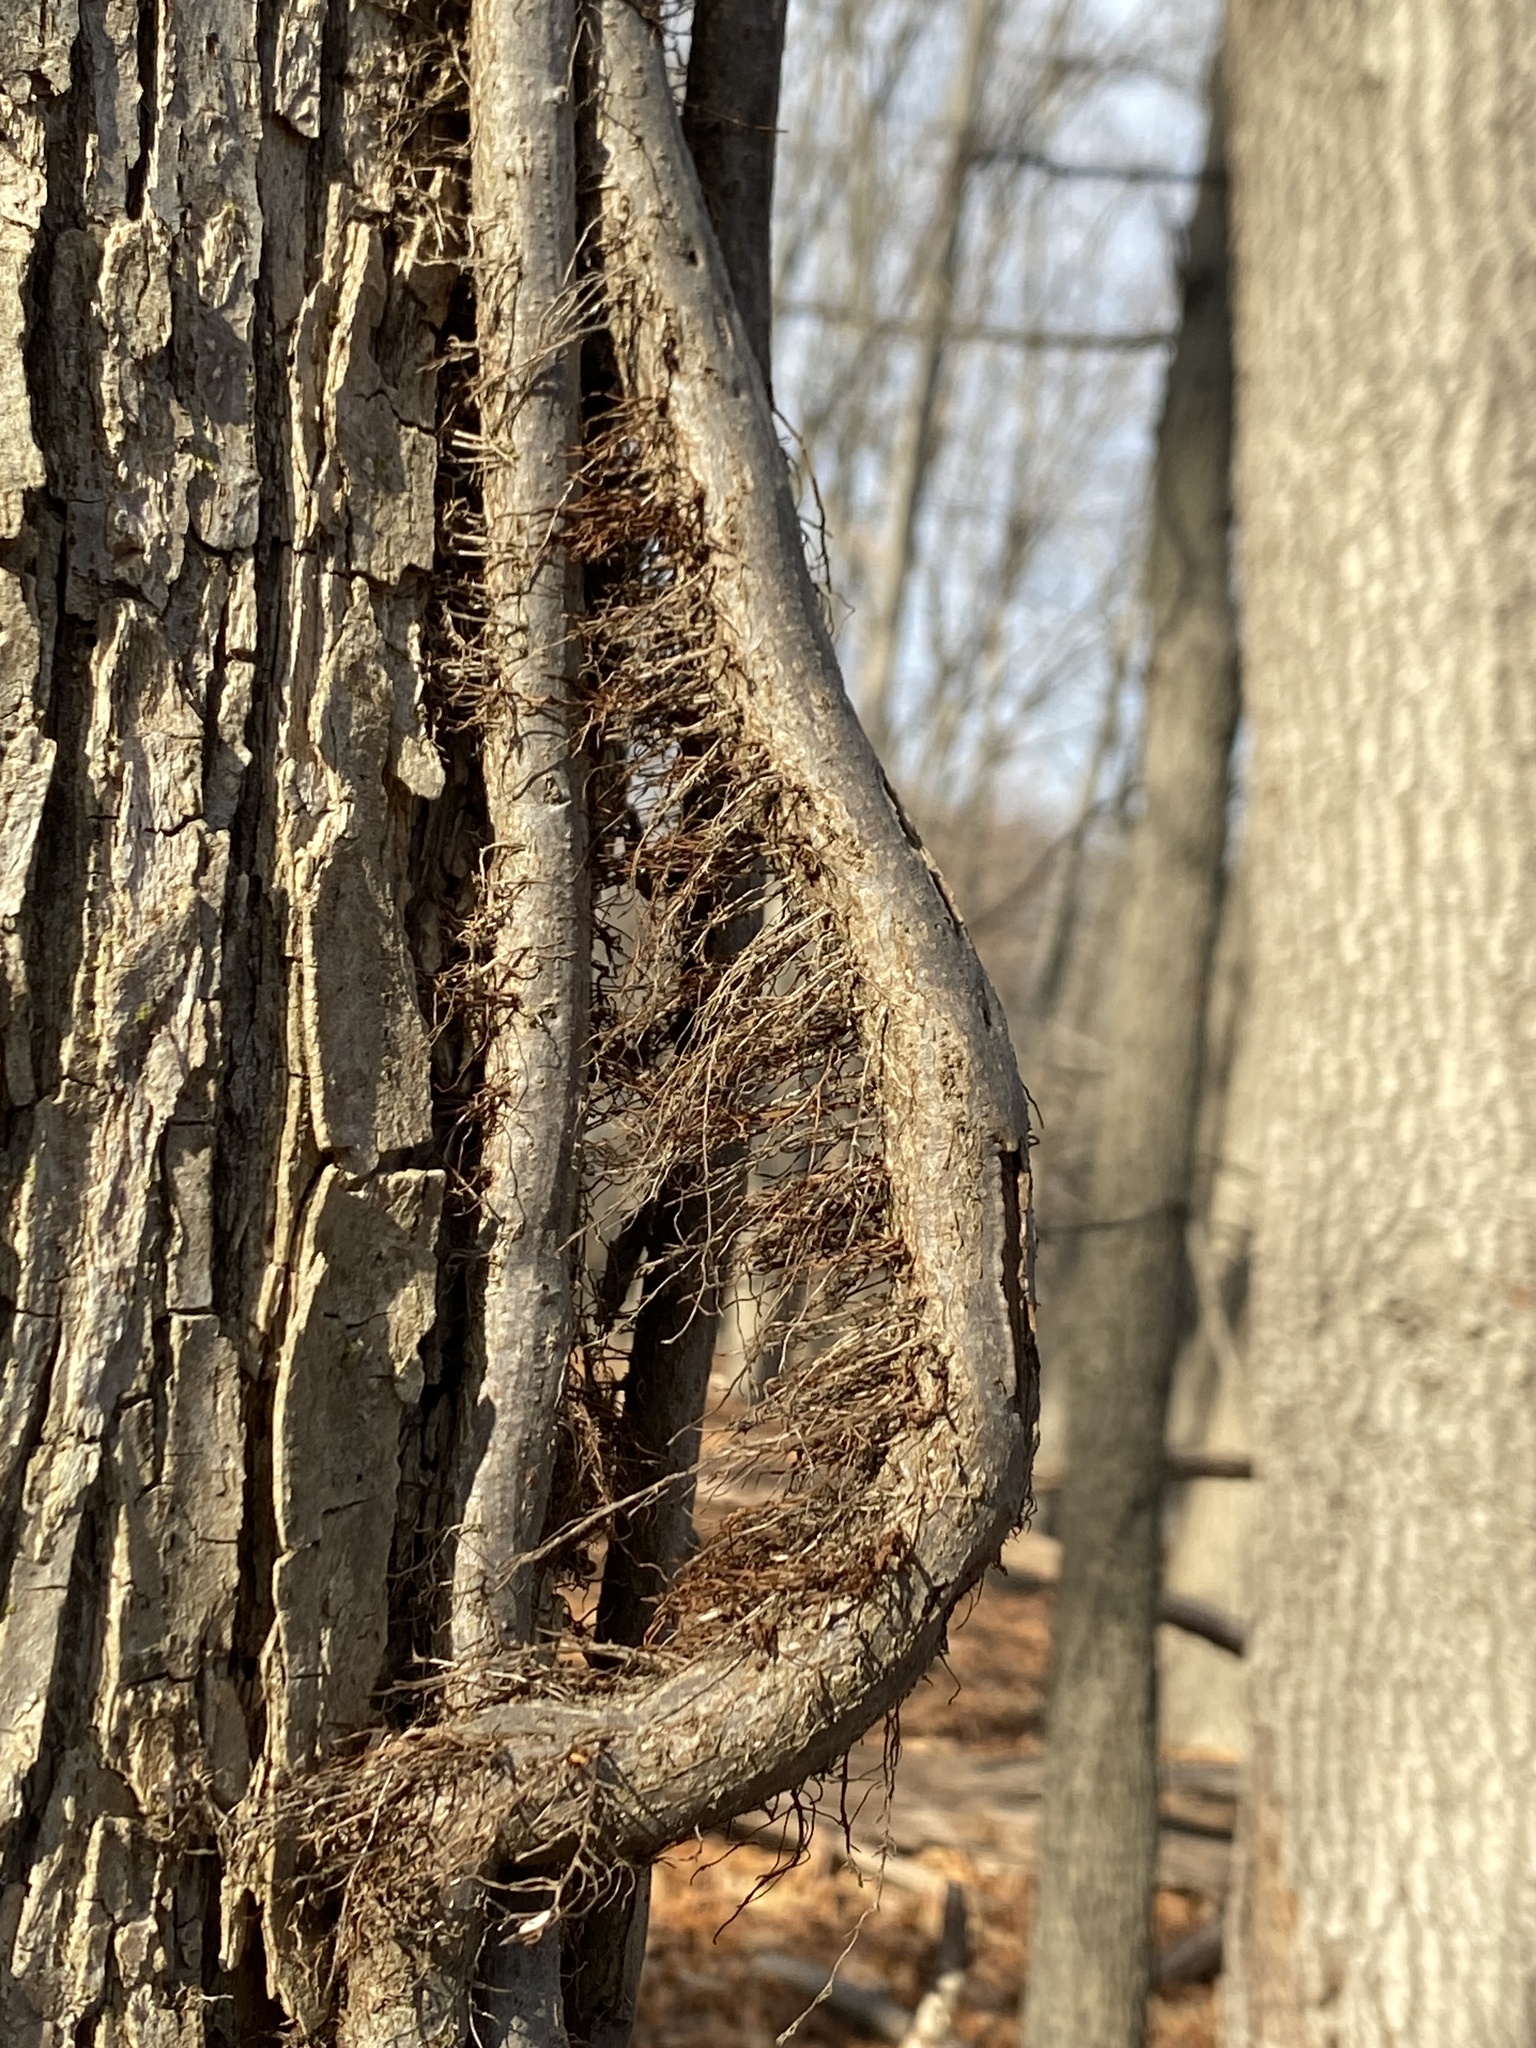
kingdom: Plantae
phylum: Tracheophyta
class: Magnoliopsida
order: Sapindales
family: Anacardiaceae
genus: Toxicodendron
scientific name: Toxicodendron radicans
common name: Poison ivy
